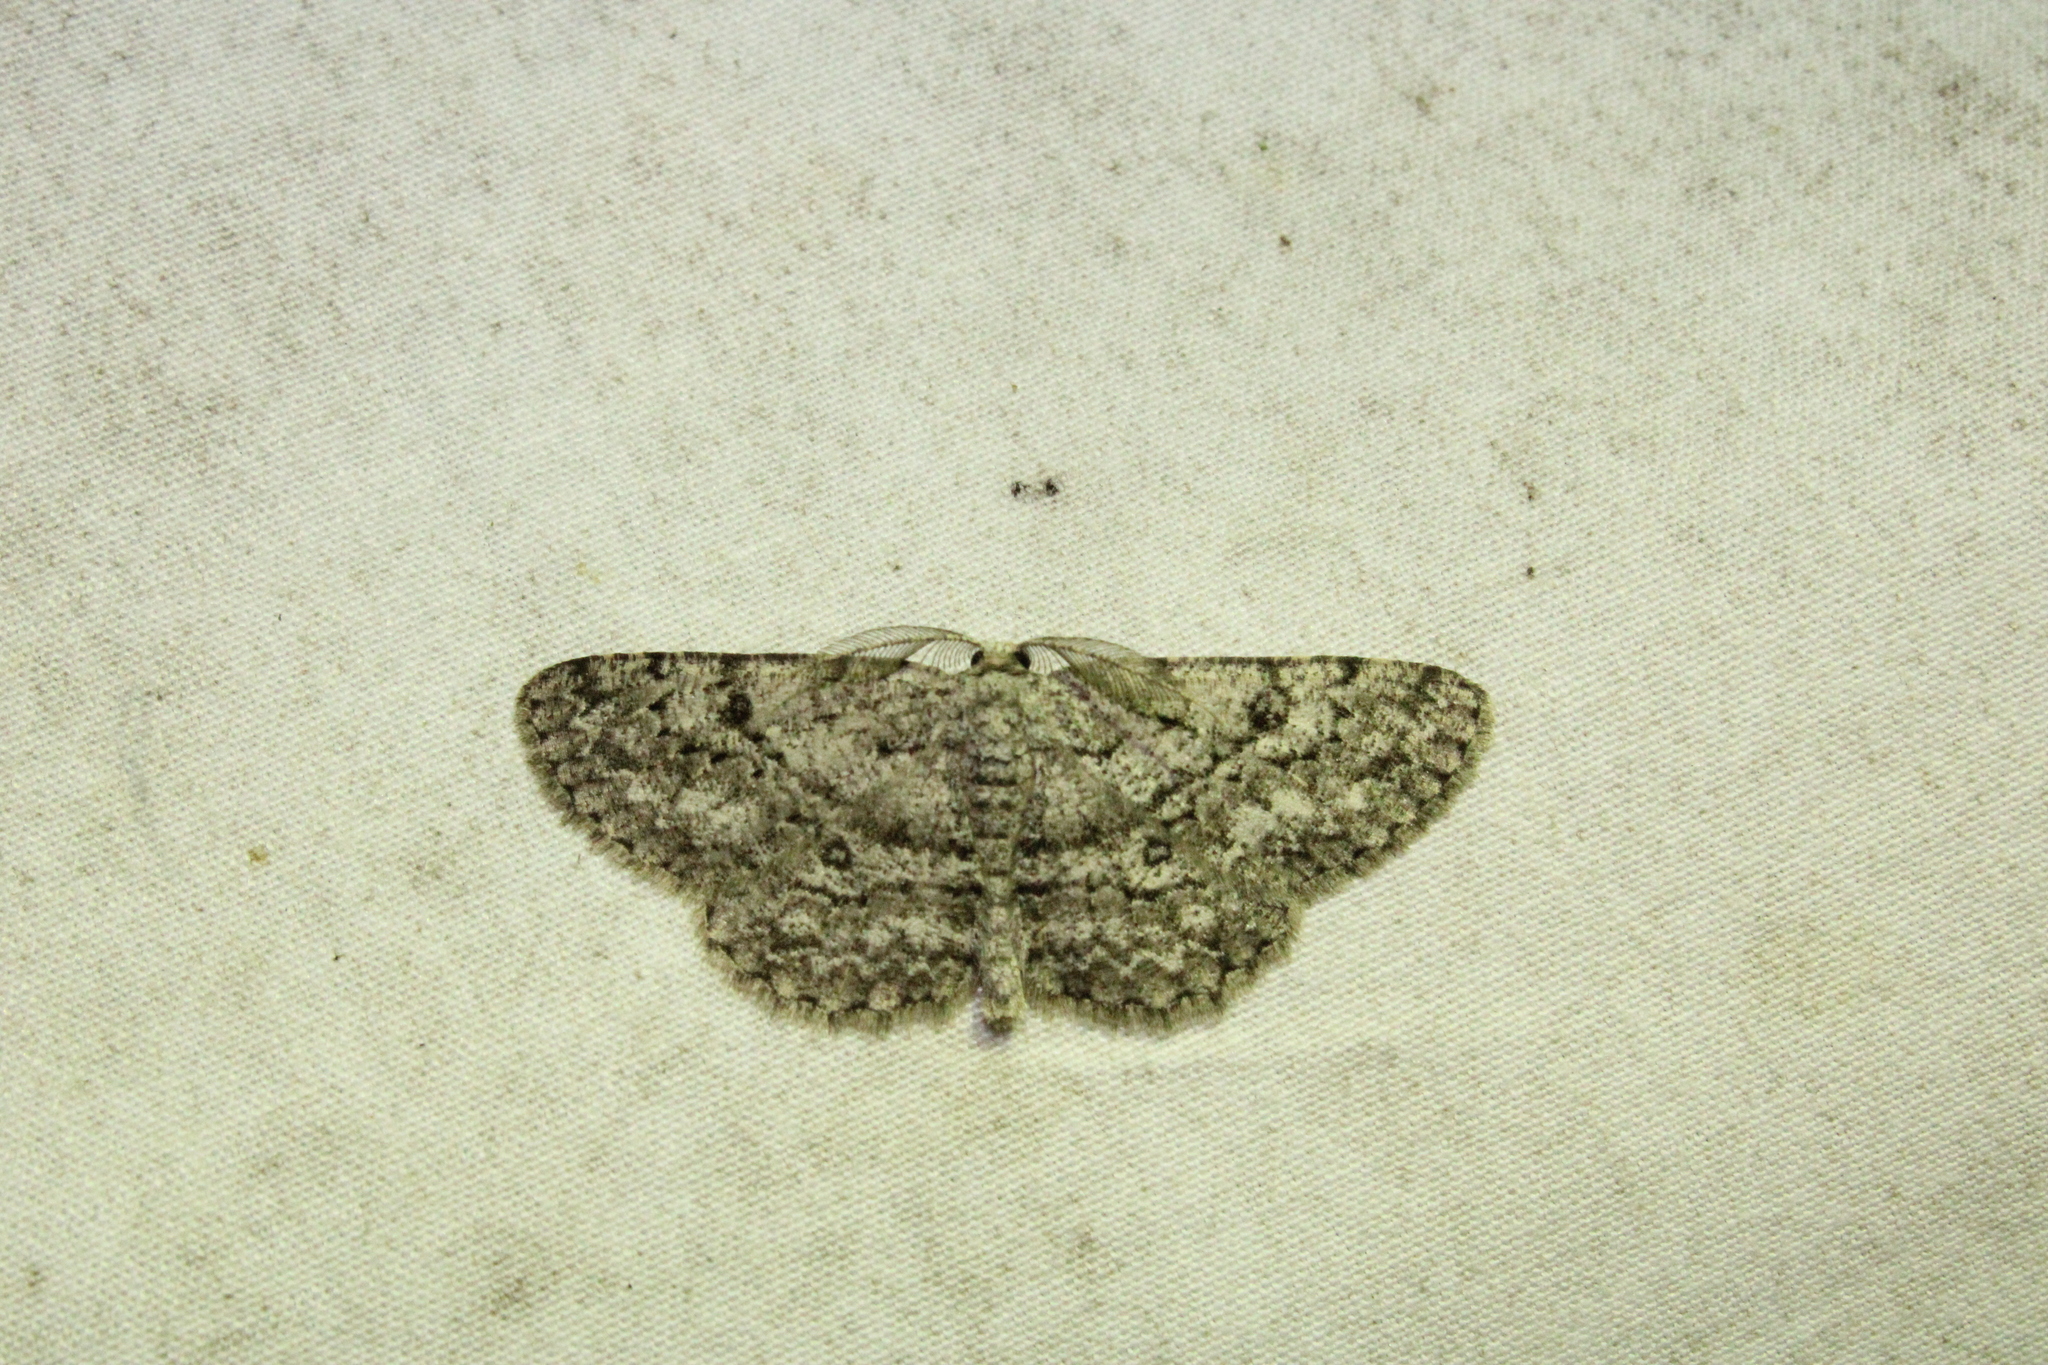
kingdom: Animalia
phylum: Arthropoda
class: Insecta
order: Lepidoptera
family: Geometridae
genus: Hypomecis
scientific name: Hypomecis umbrosaria
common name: Umber moth
